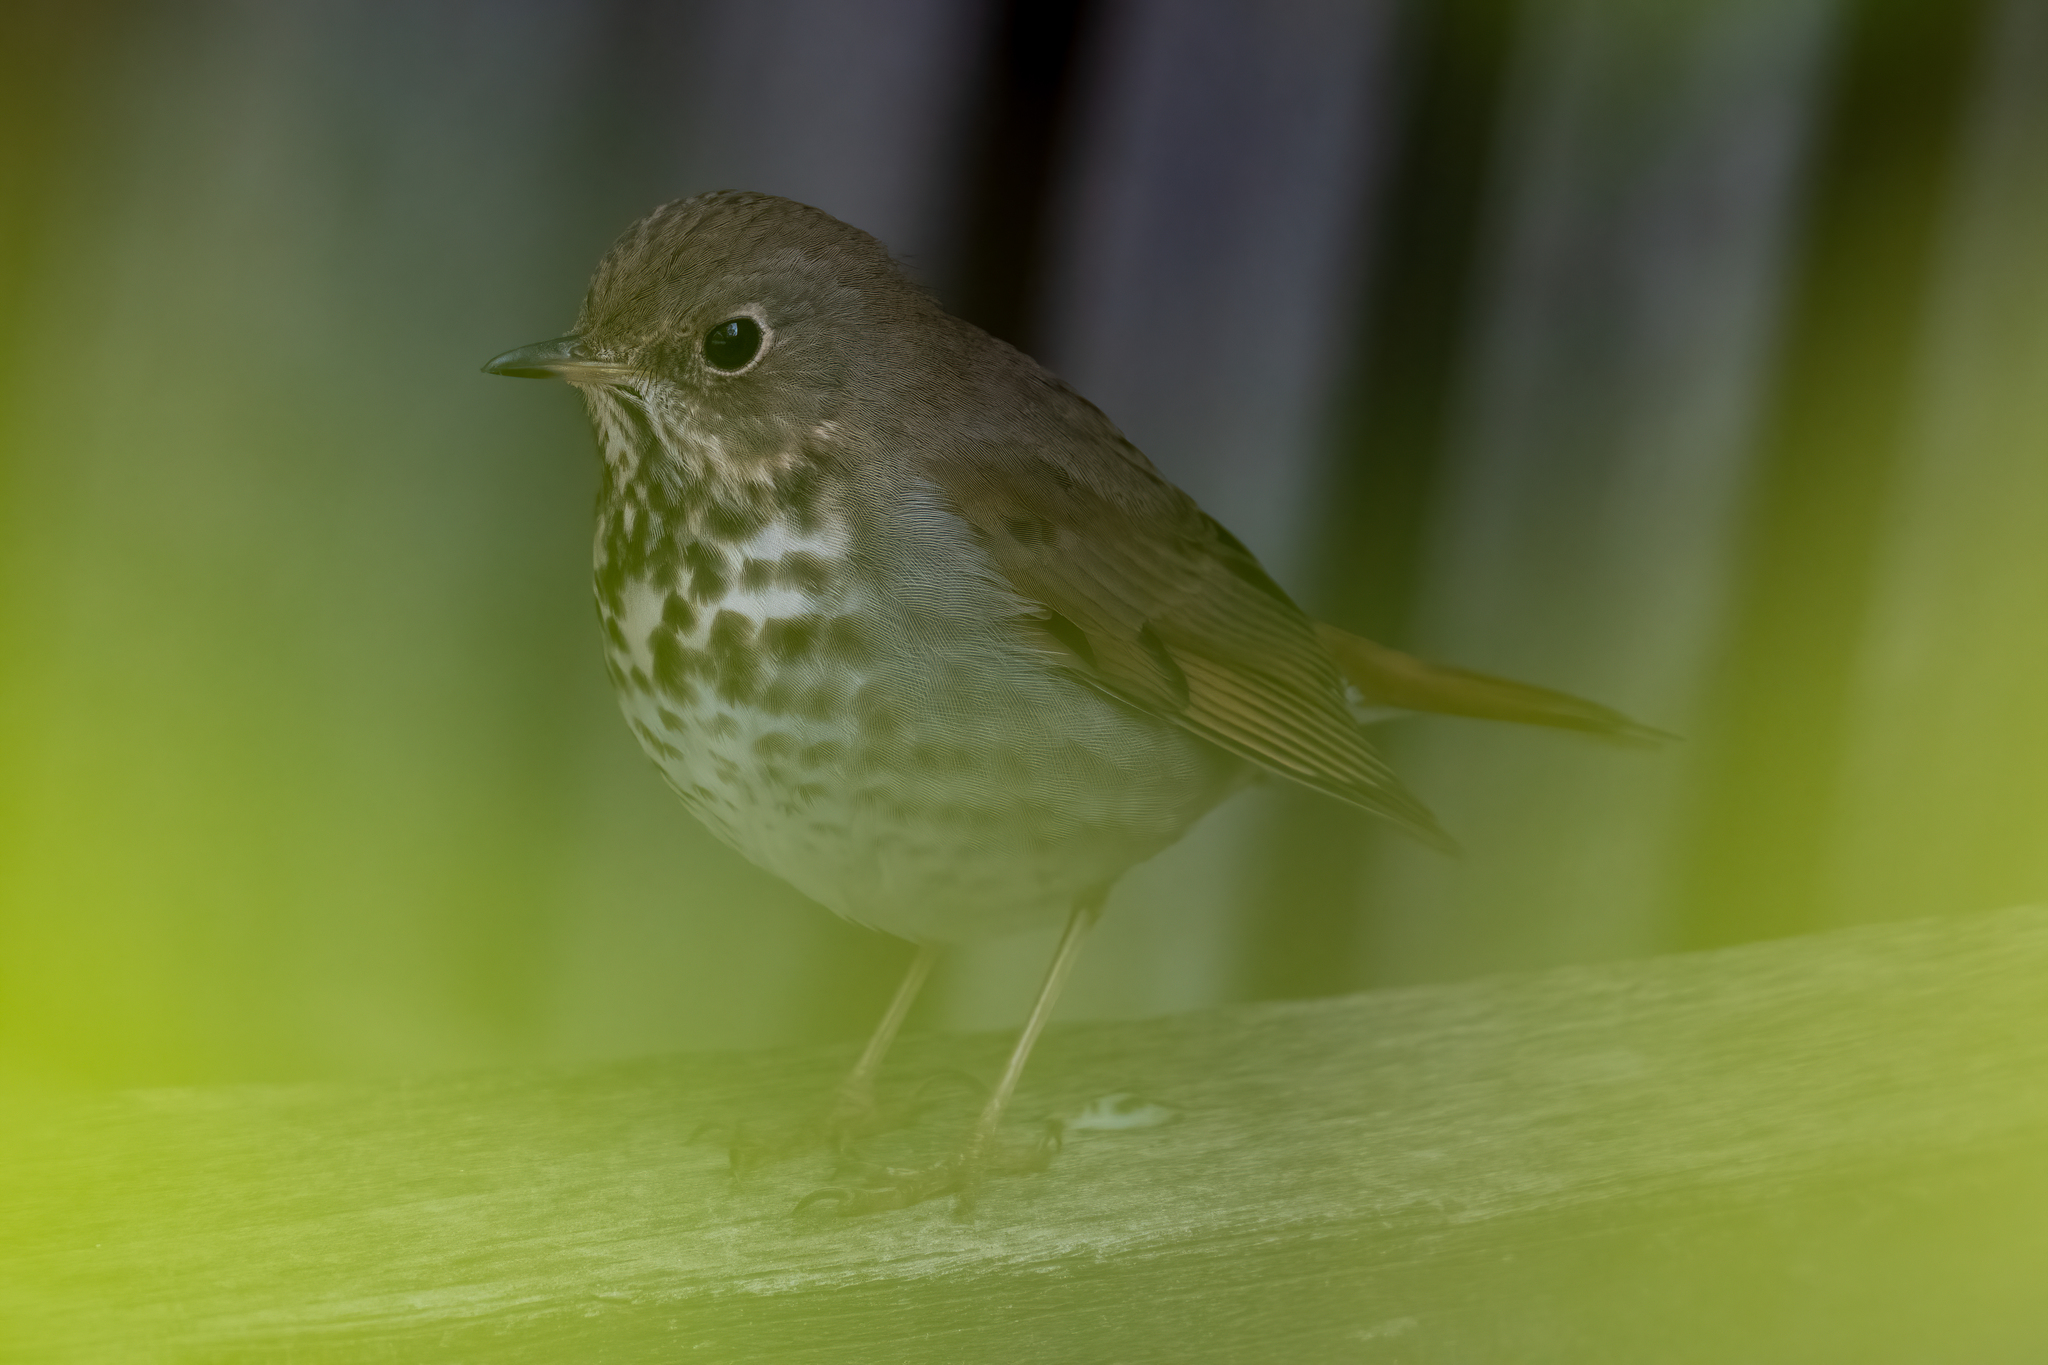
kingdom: Animalia
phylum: Chordata
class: Aves
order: Passeriformes
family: Turdidae
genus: Catharus
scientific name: Catharus guttatus
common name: Hermit thrush
